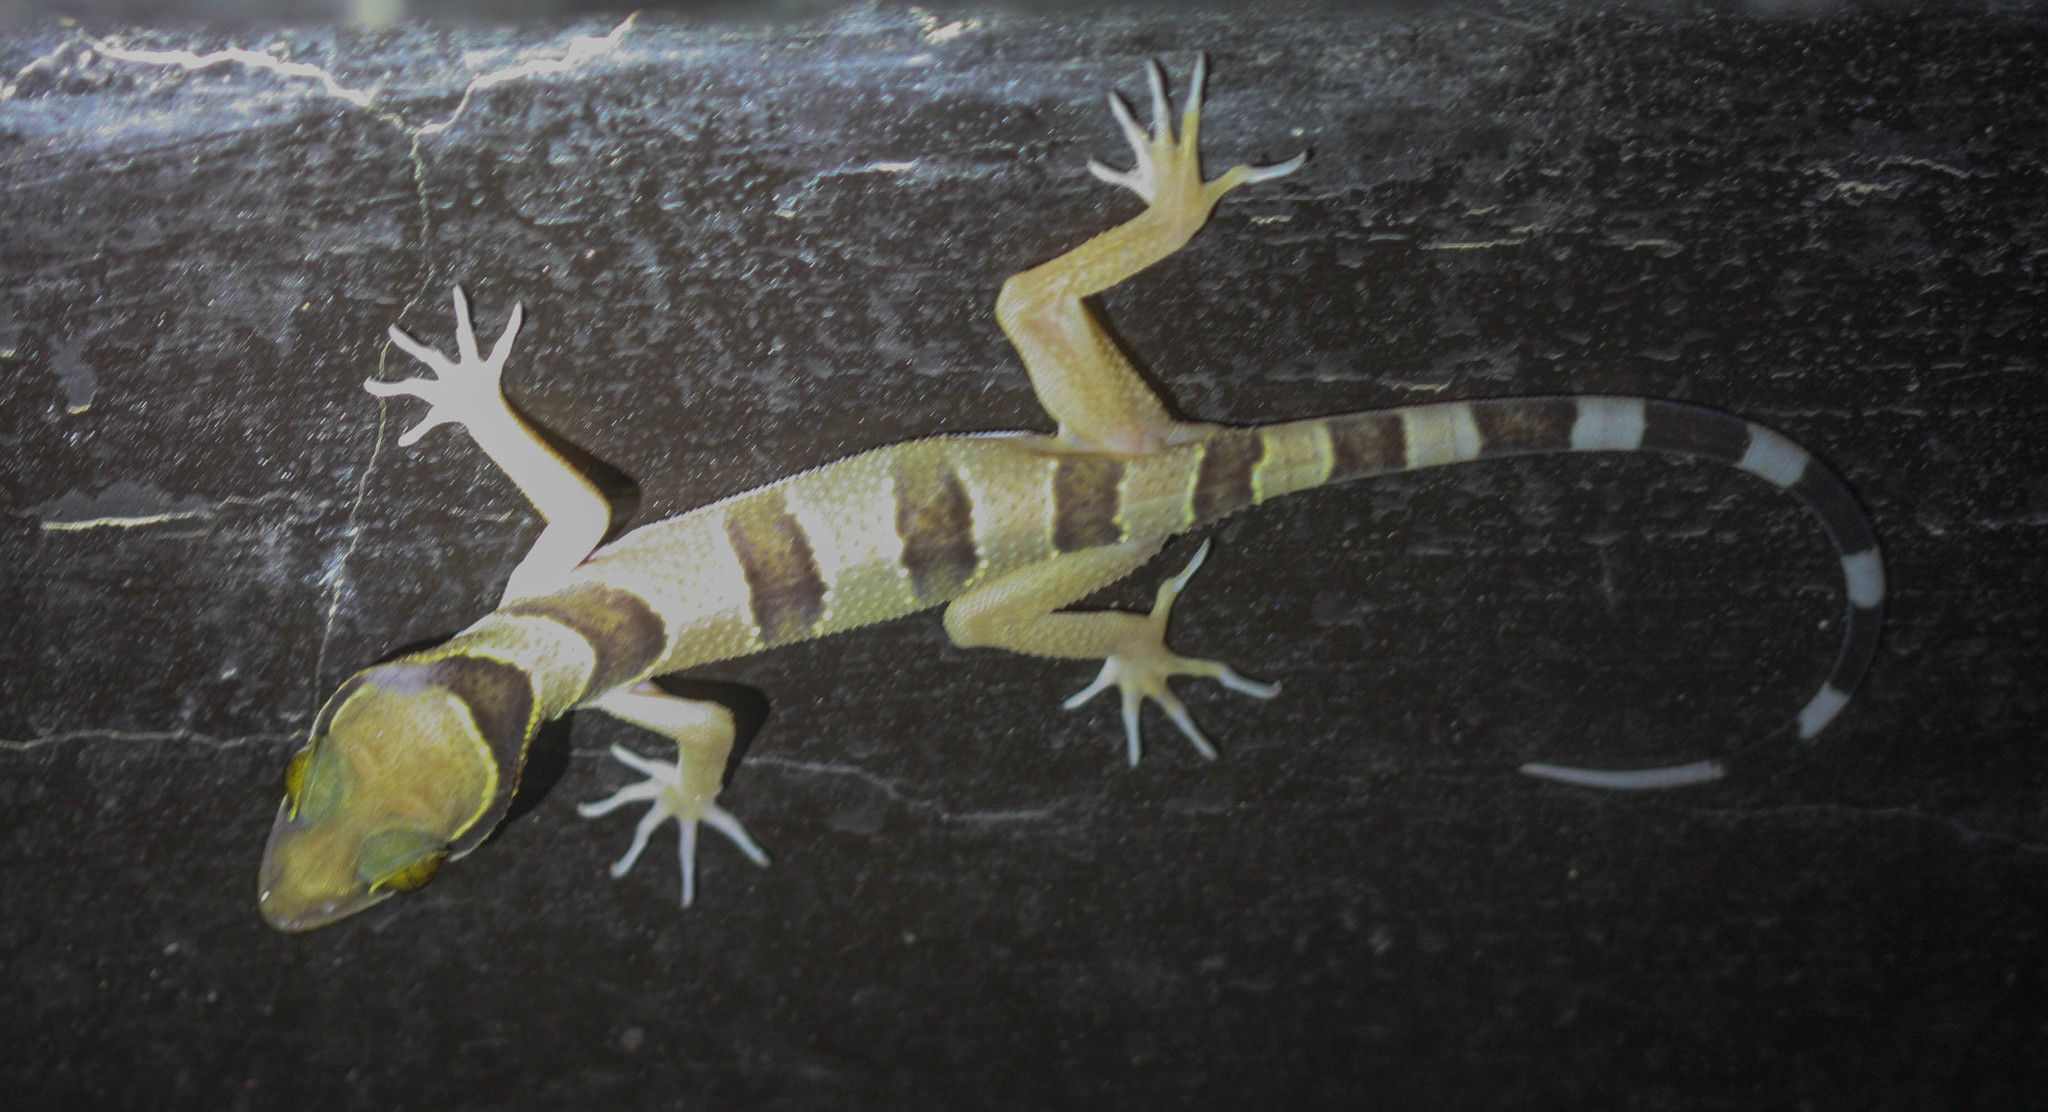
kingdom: Animalia
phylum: Chordata
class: Squamata
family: Gekkonidae
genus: Cyrtodactylus
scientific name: Cyrtodactylus pulchellus
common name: Banded bent-toed gecko
